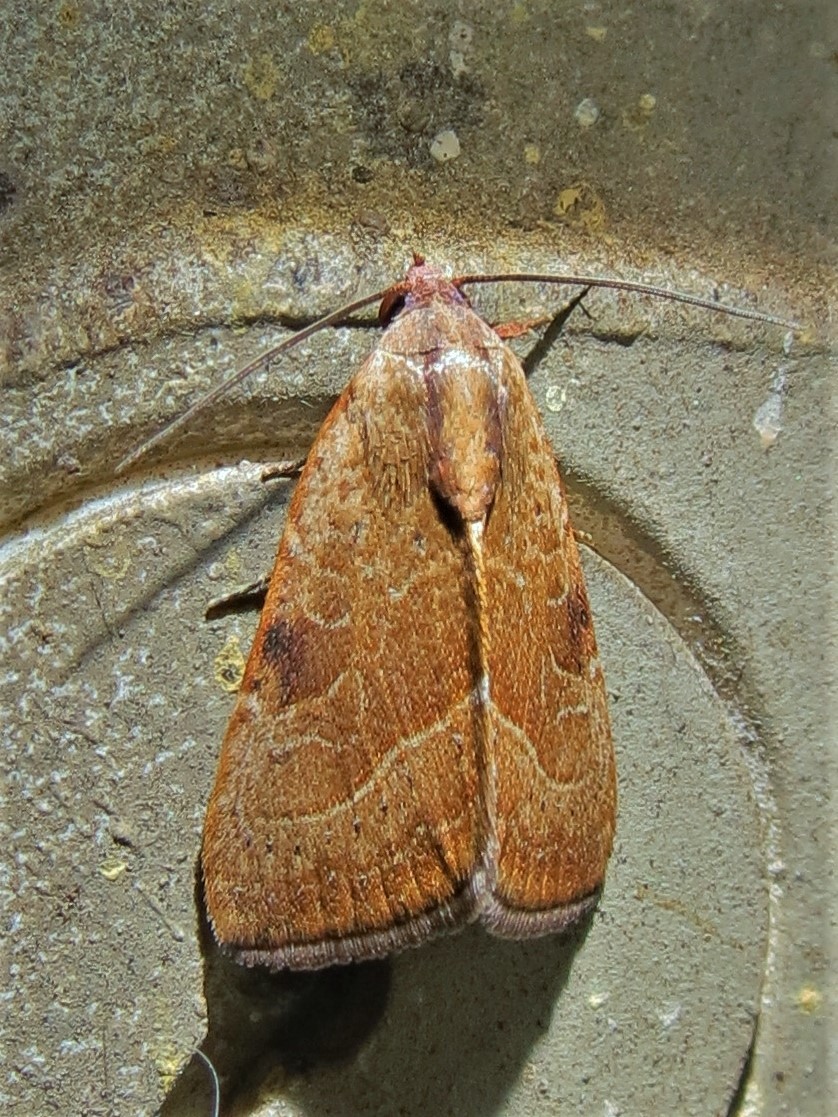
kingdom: Animalia
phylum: Arthropoda
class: Insecta
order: Lepidoptera
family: Noctuidae
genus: Galgula
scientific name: Galgula partita
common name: Wedgeling
